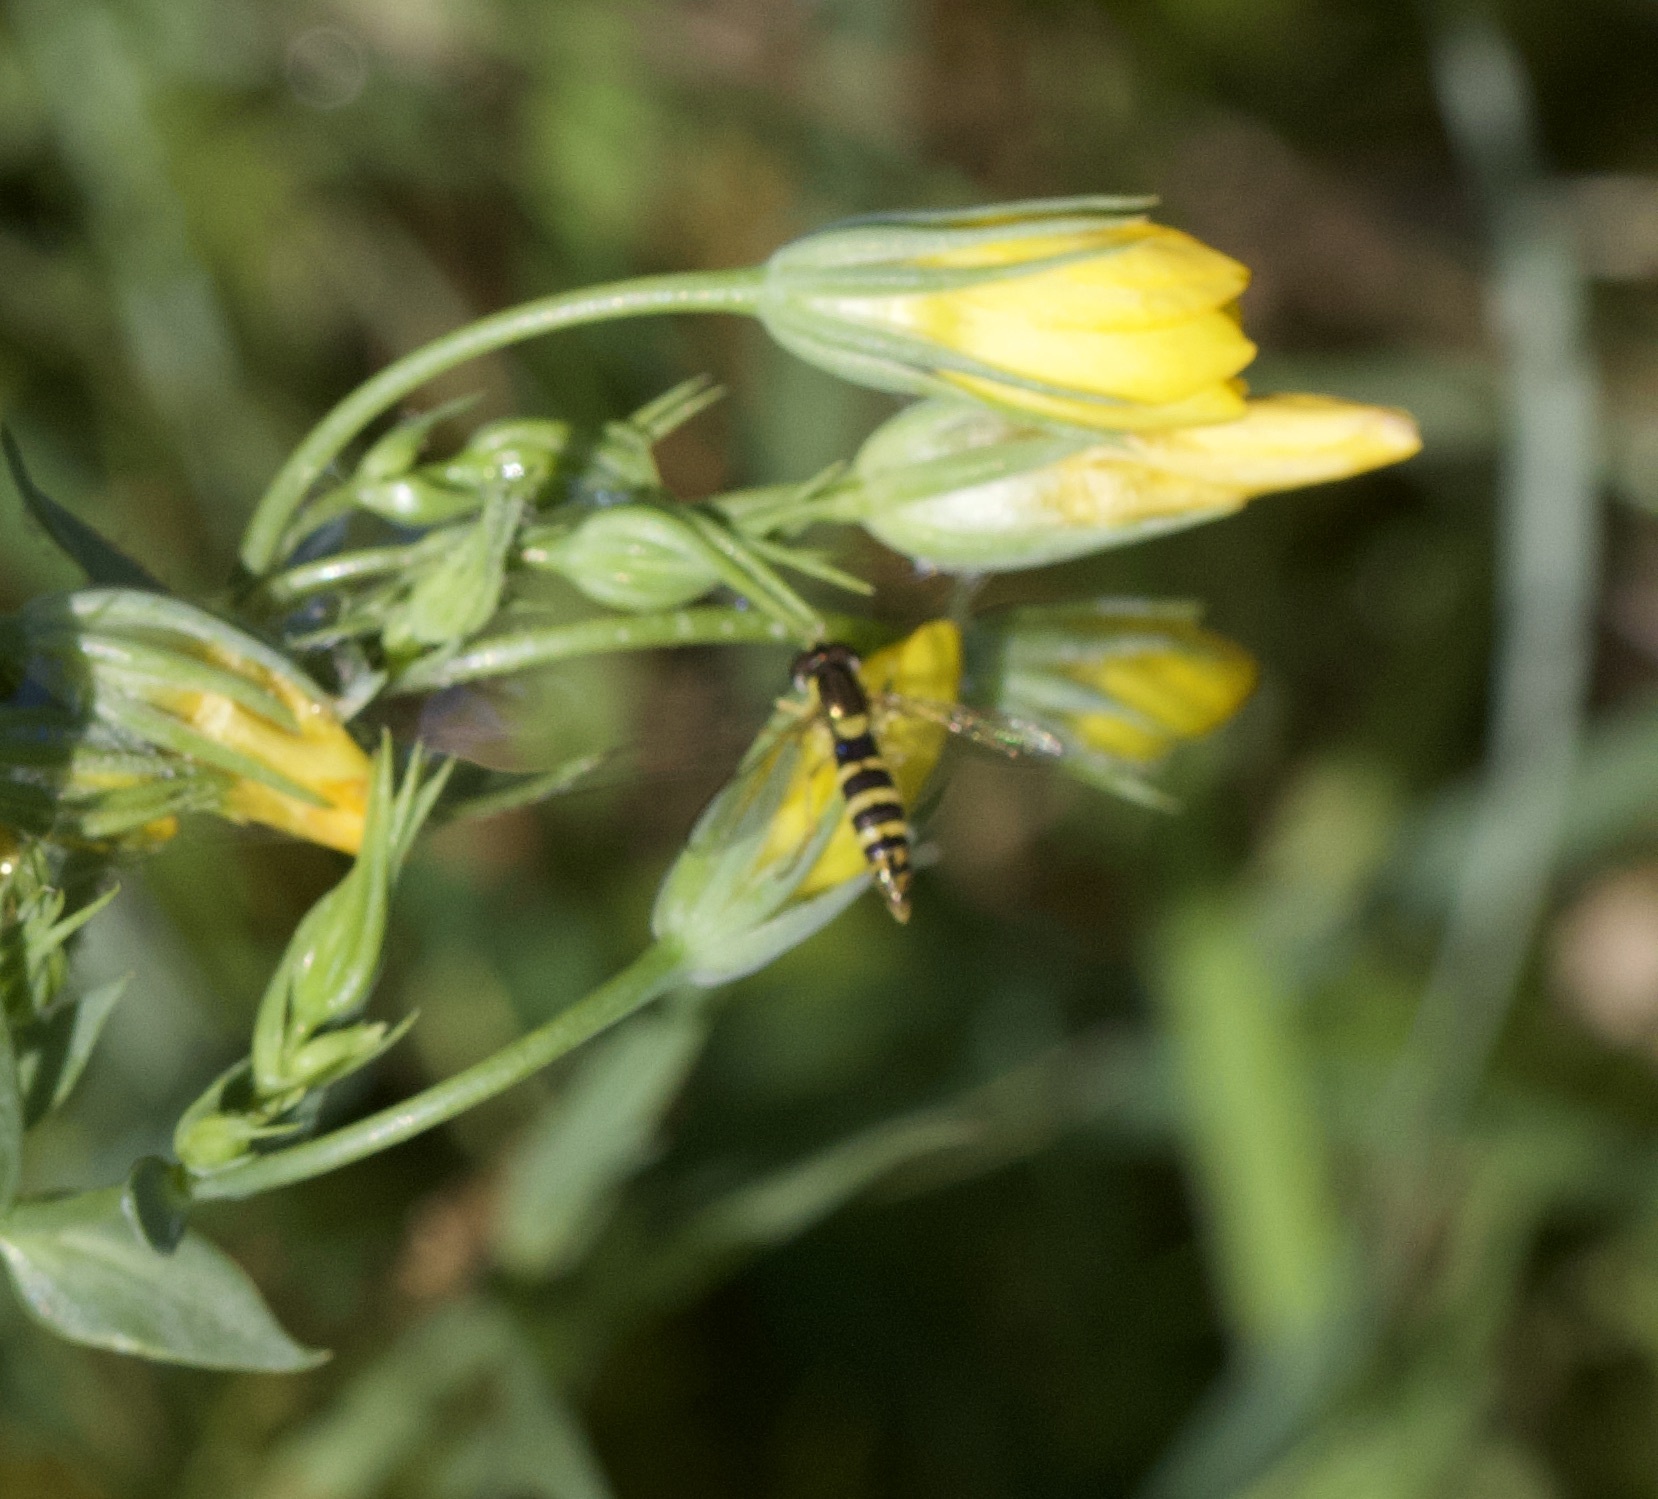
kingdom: Animalia
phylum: Arthropoda
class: Insecta
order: Diptera
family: Syrphidae
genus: Sphaerophoria
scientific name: Sphaerophoria
